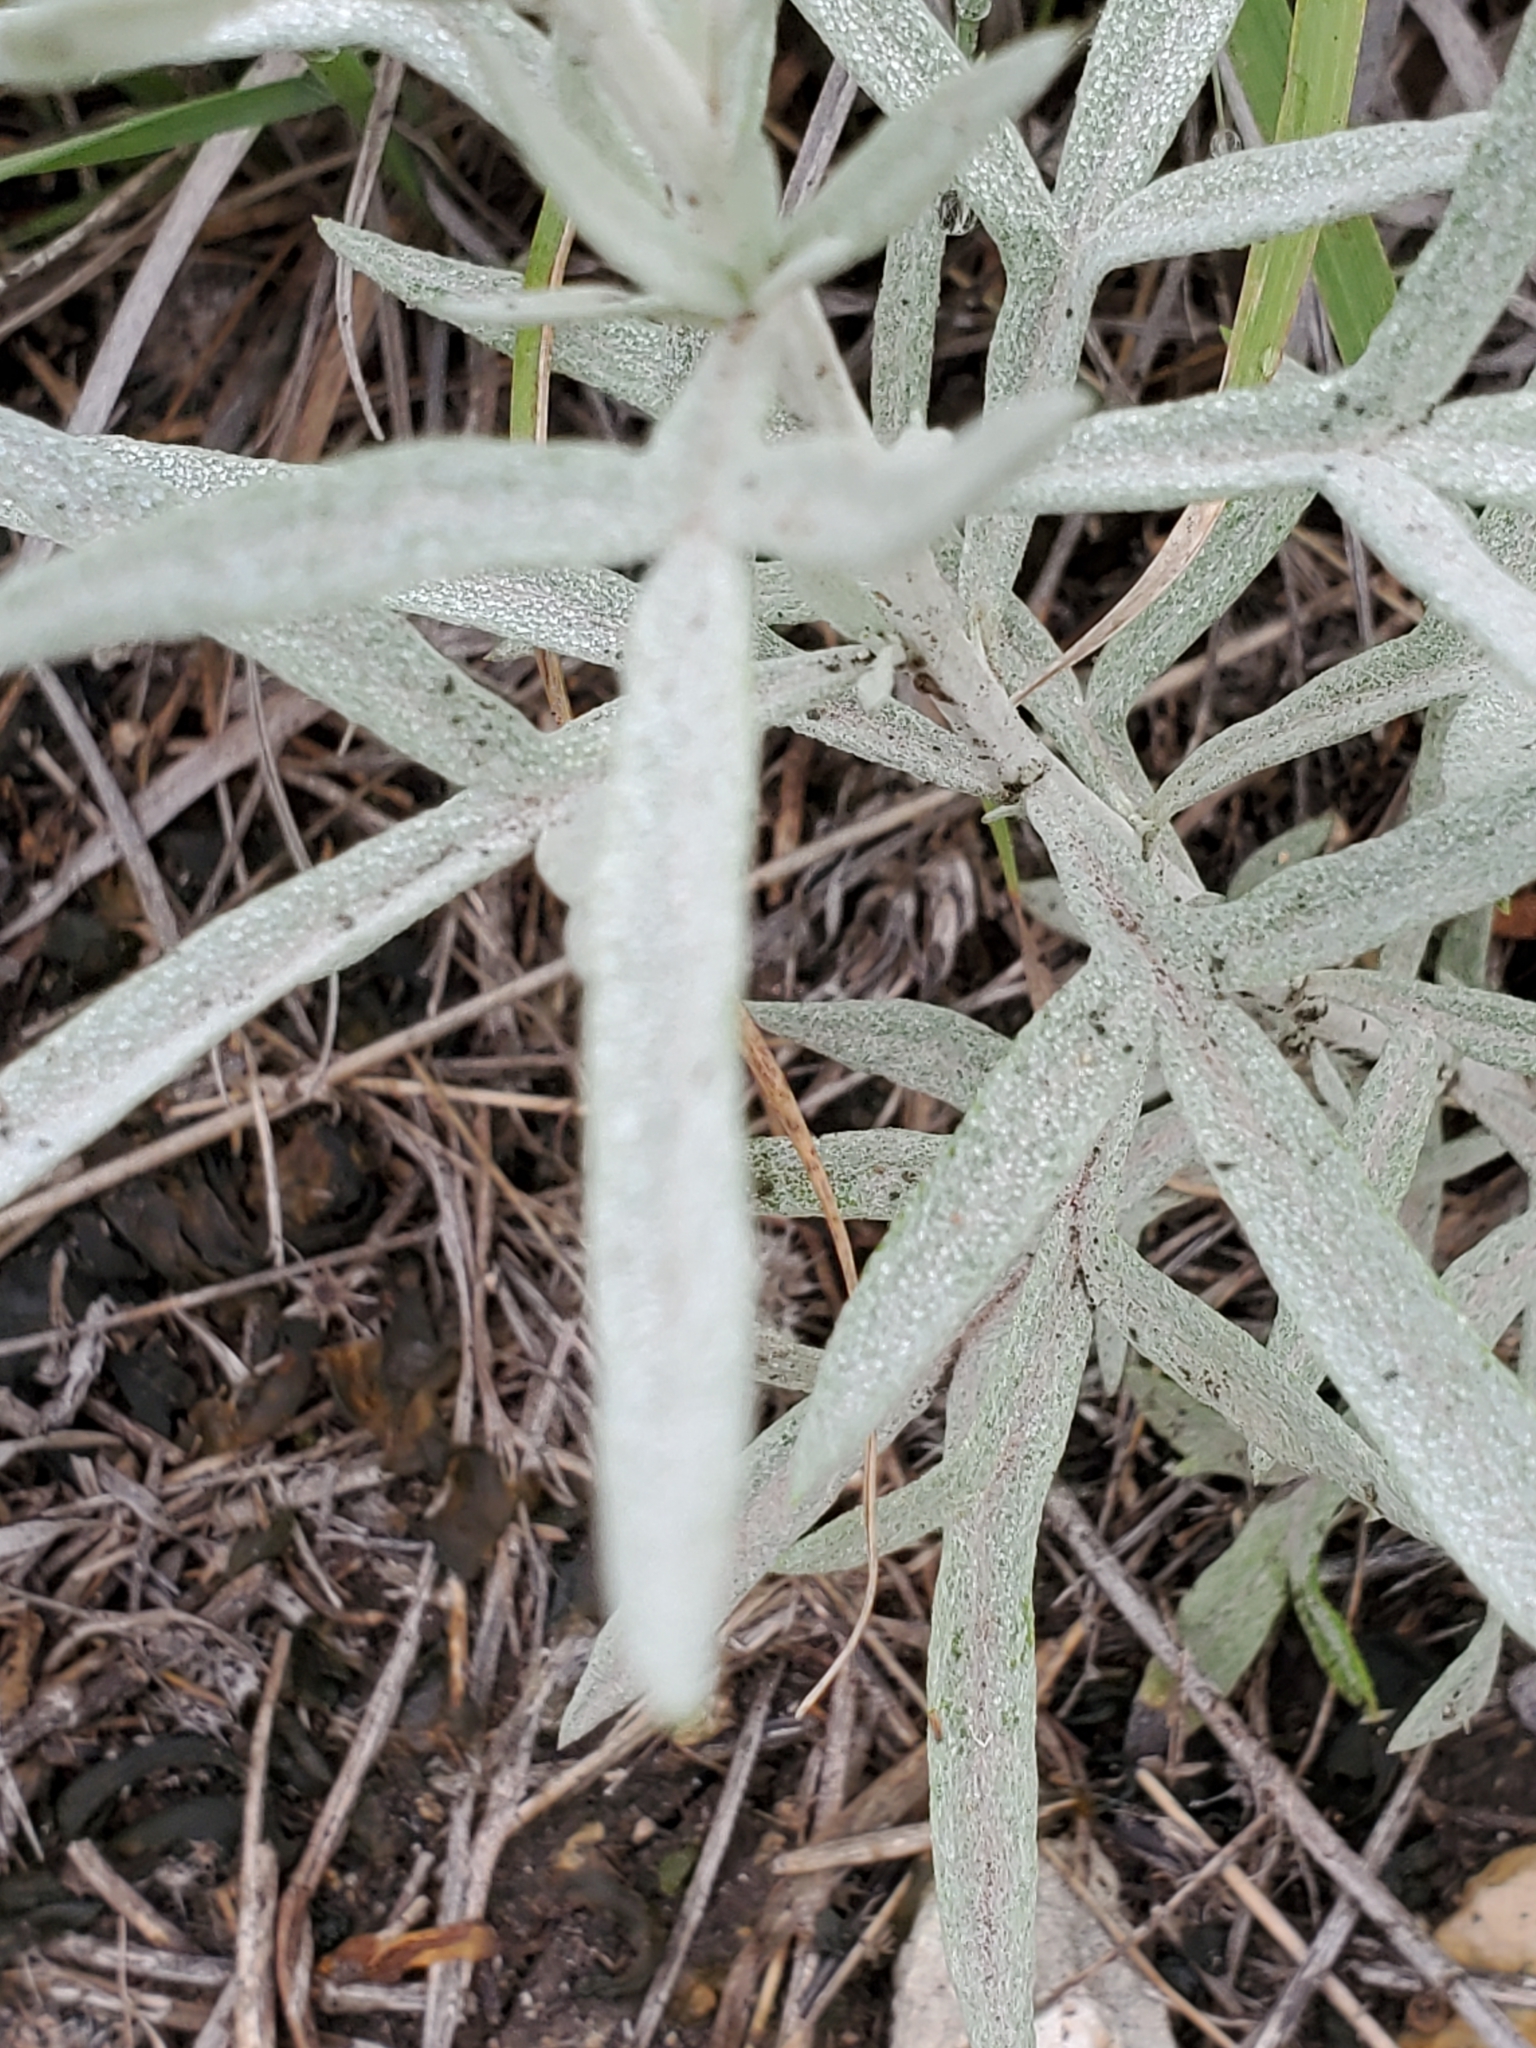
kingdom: Plantae
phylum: Tracheophyta
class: Magnoliopsida
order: Asterales
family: Asteraceae
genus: Artemisia
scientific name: Artemisia ludoviciana
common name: Western mugwort
